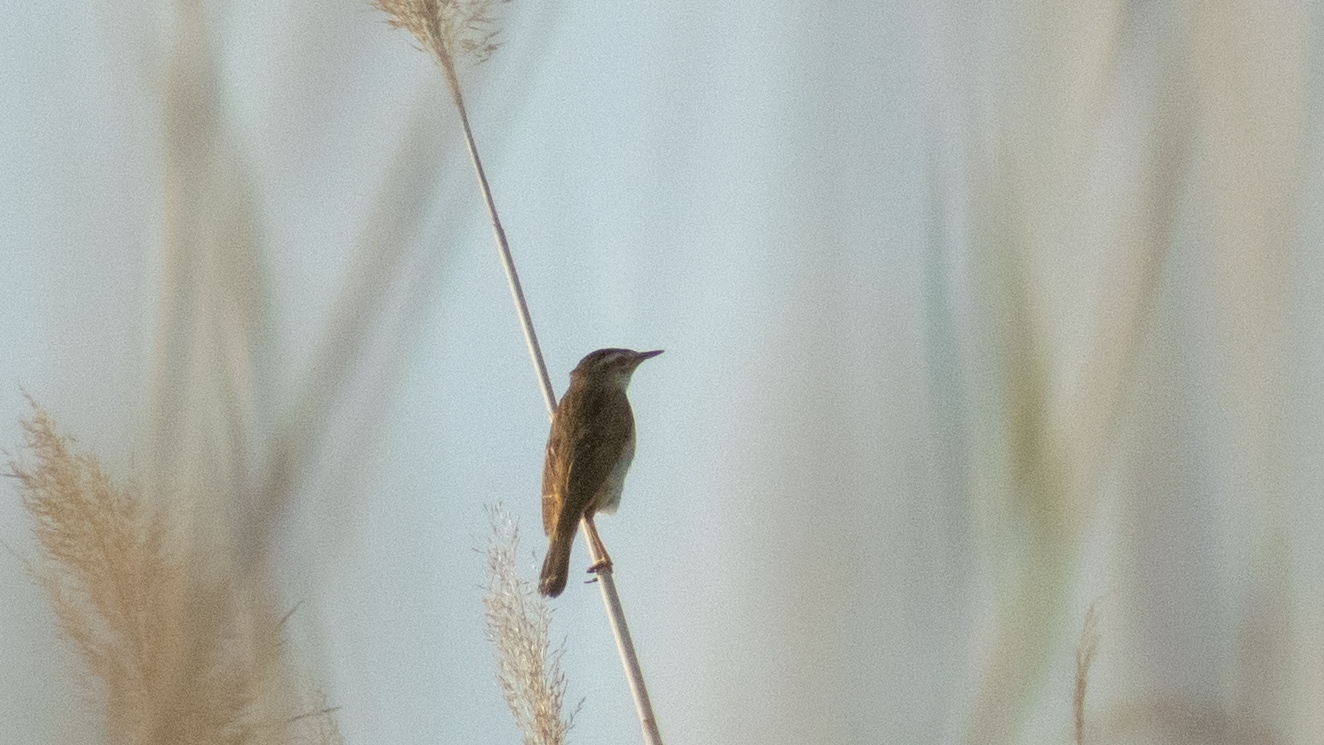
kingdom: Animalia
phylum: Chordata
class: Aves
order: Passeriformes
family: Acrocephalidae
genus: Acrocephalus
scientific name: Acrocephalus schoenobaenus
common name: Sedge warbler
